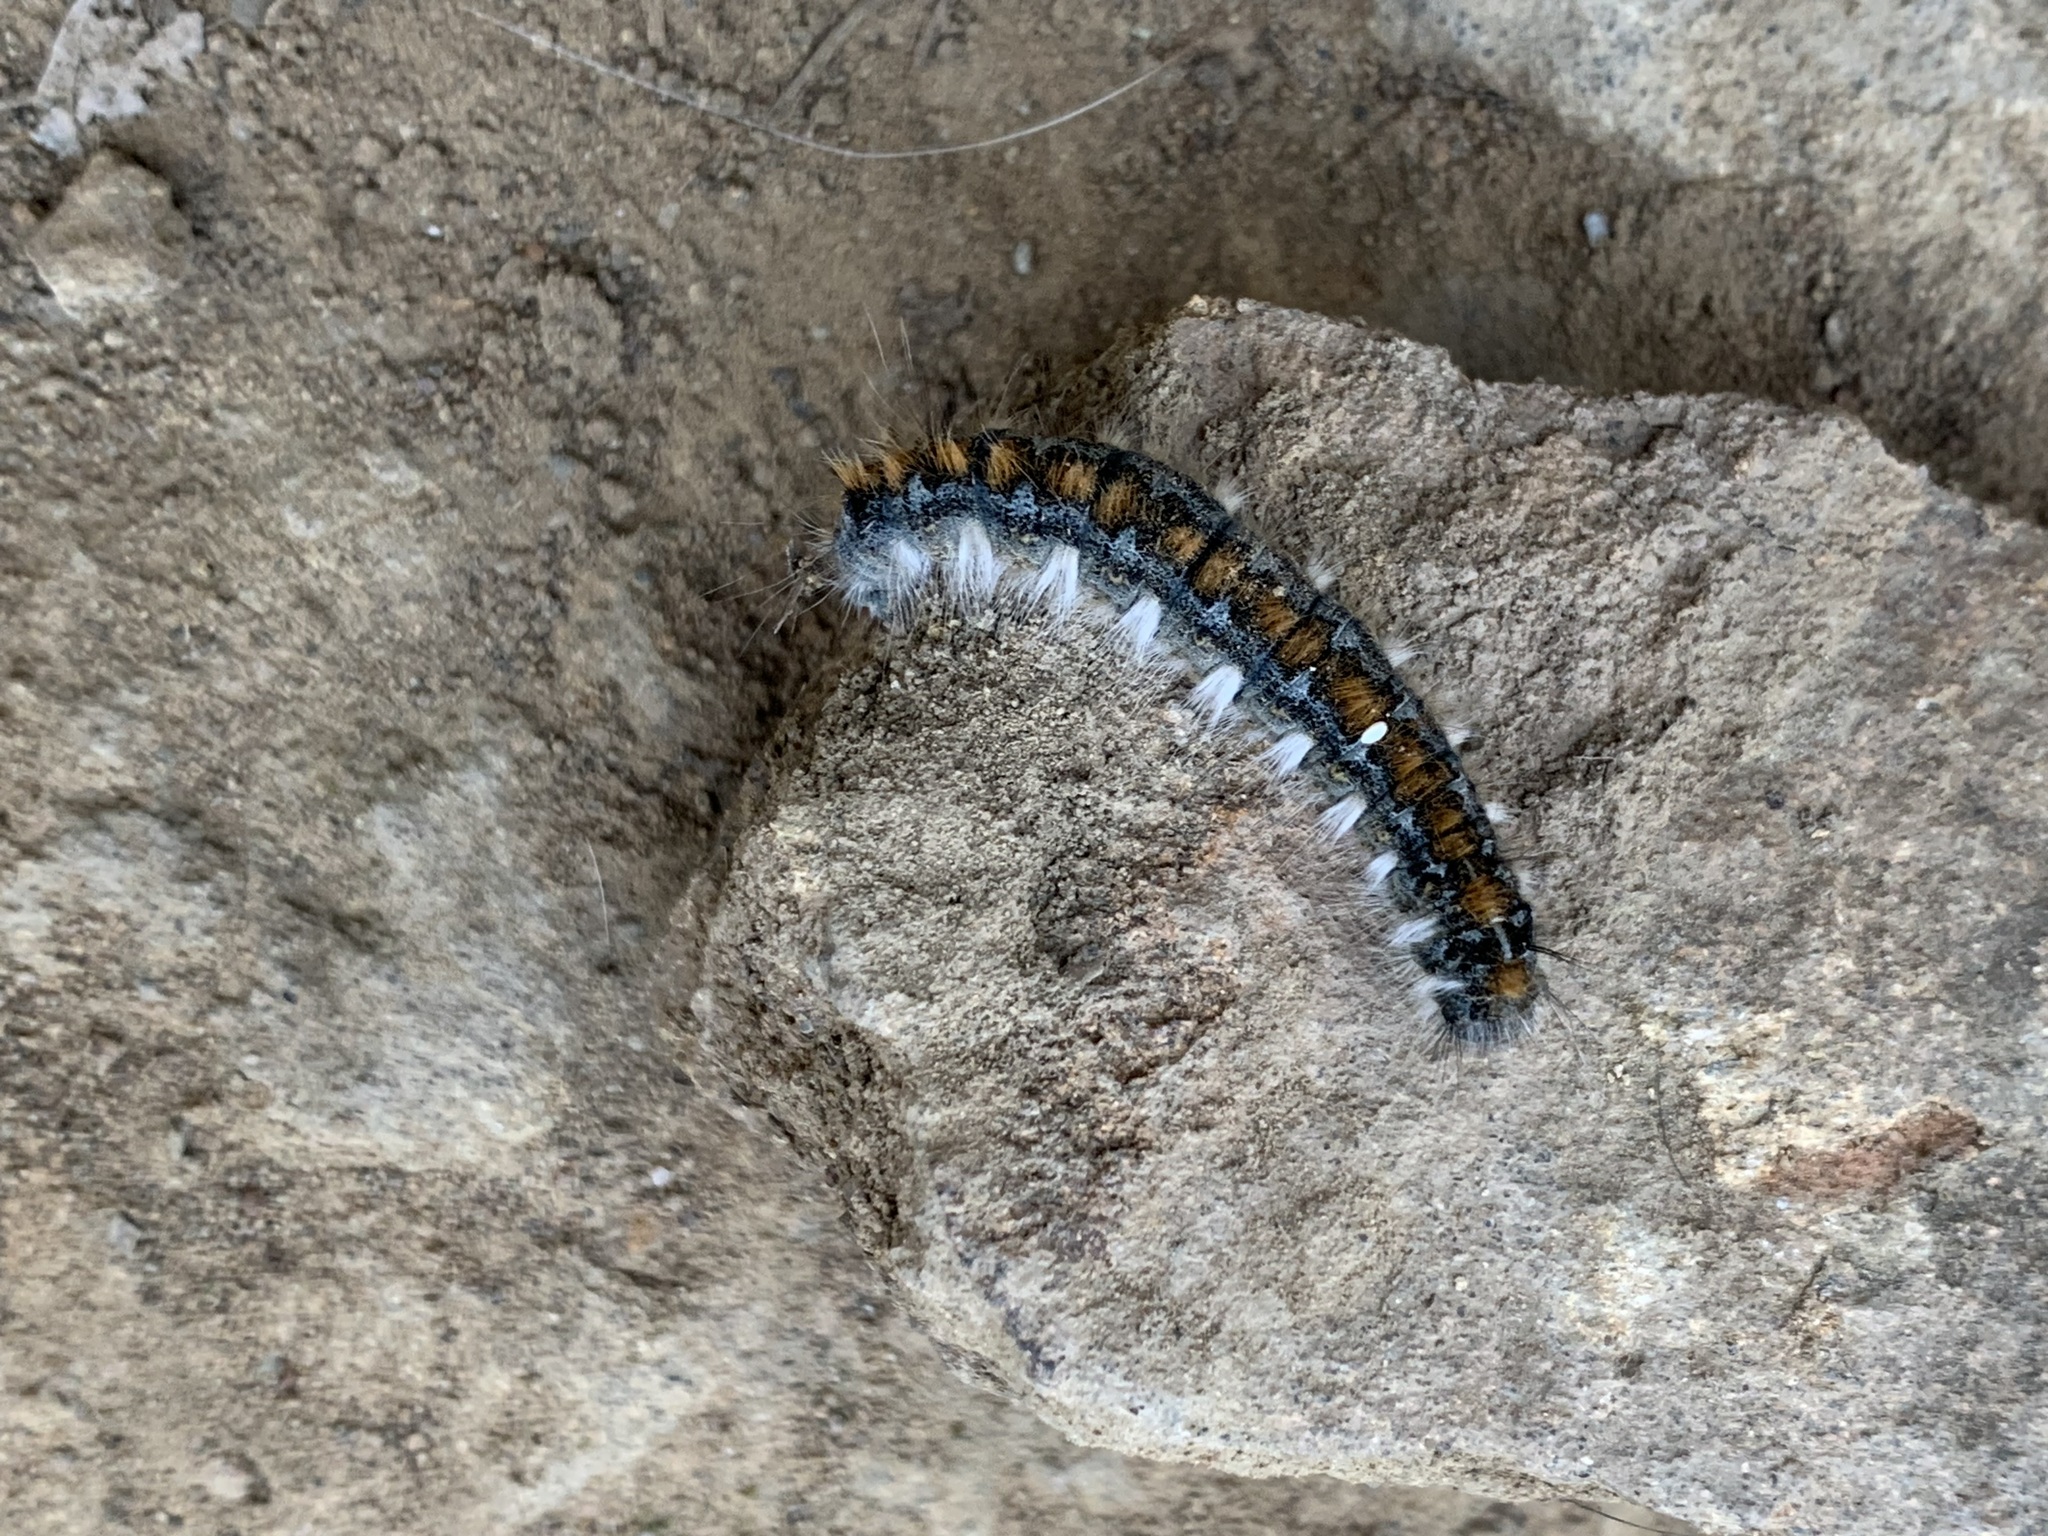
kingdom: Animalia
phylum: Arthropoda
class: Insecta
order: Lepidoptera
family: Lasiocampidae
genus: Malacosoma
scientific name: Malacosoma constricta
